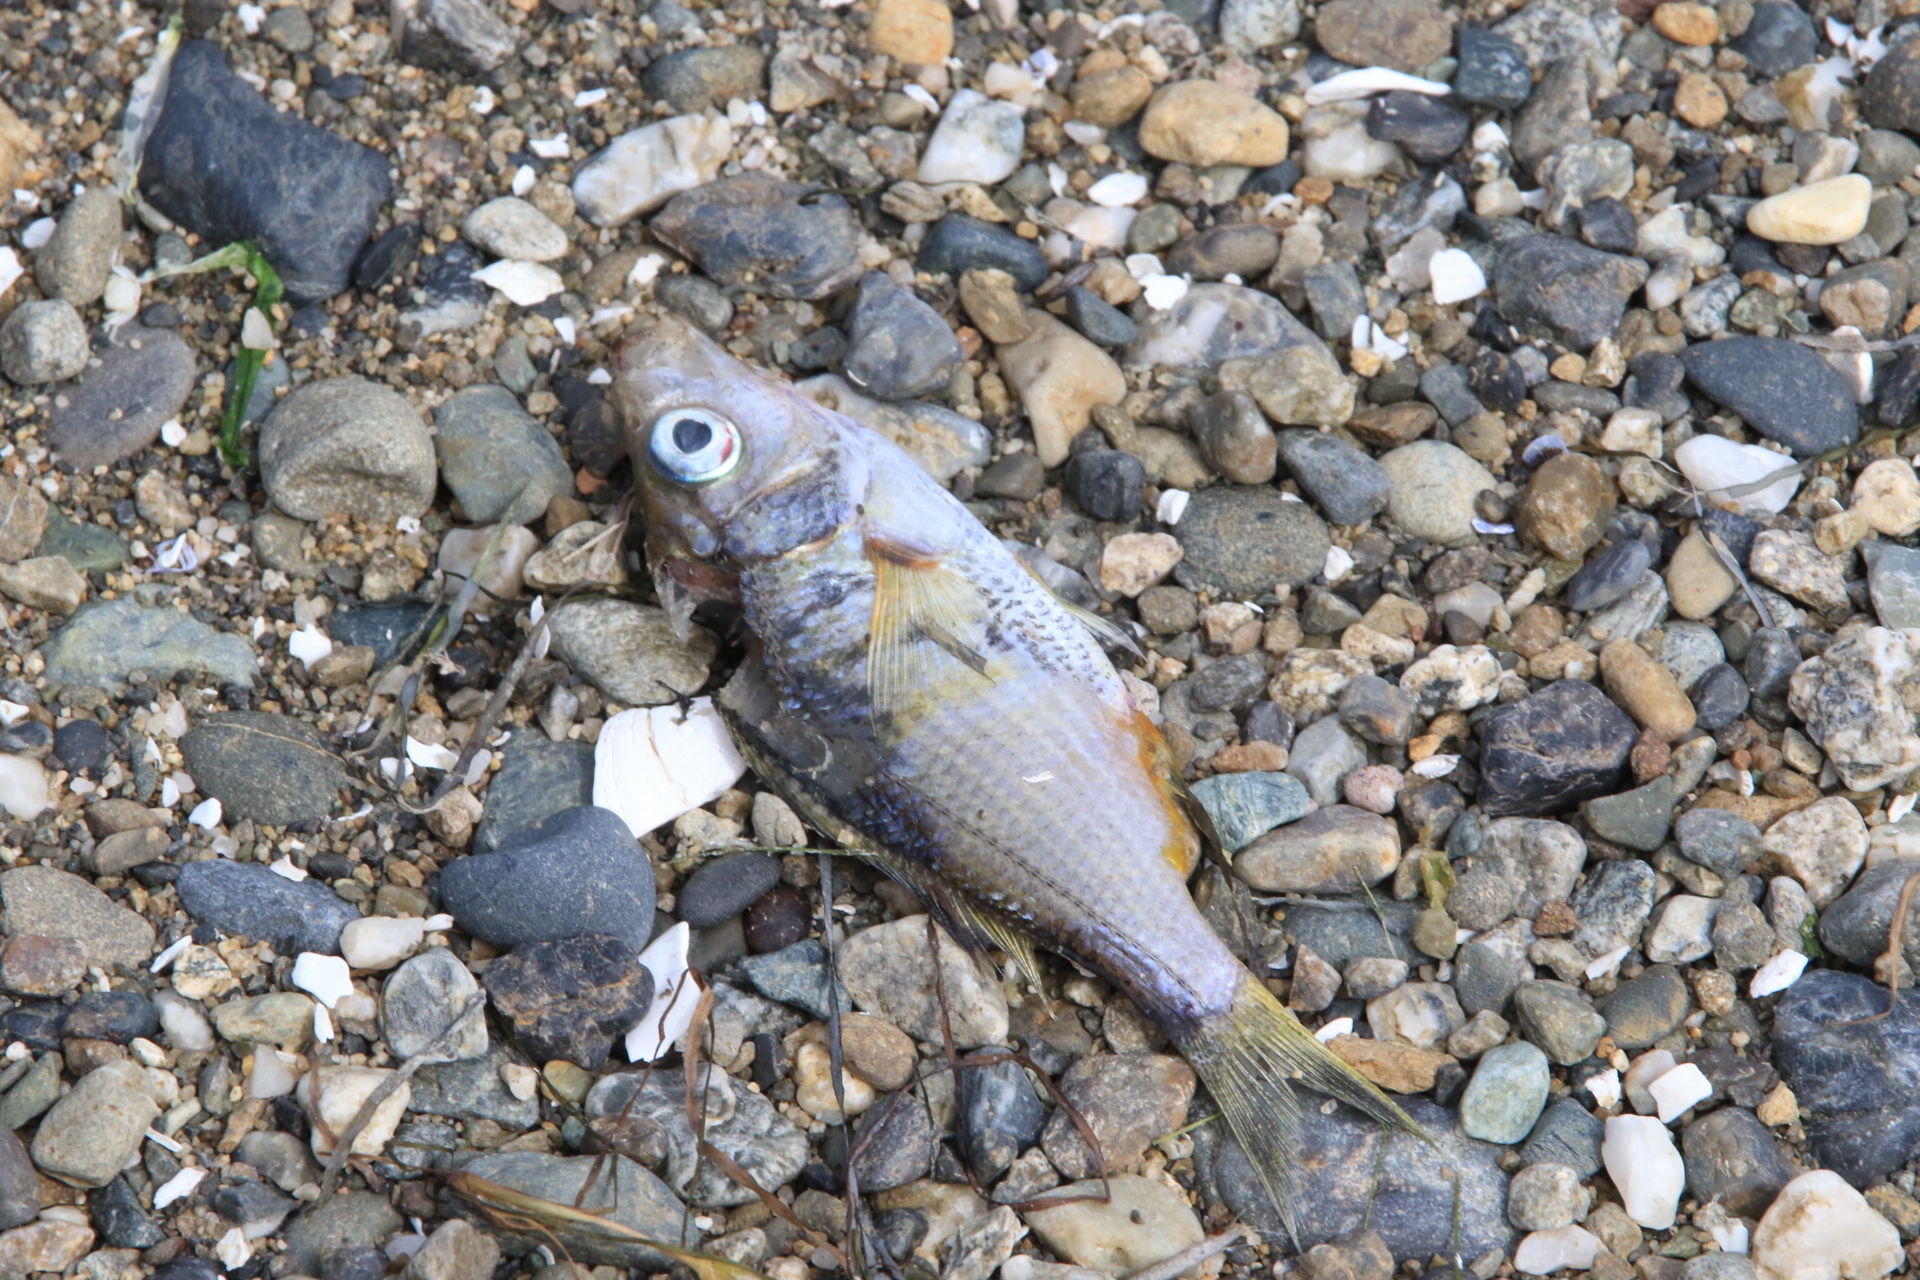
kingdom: Animalia
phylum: Chordata
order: Perciformes
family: Embiotocidae
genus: Cymatogaster
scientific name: Cymatogaster aggregata
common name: Shiner perch
